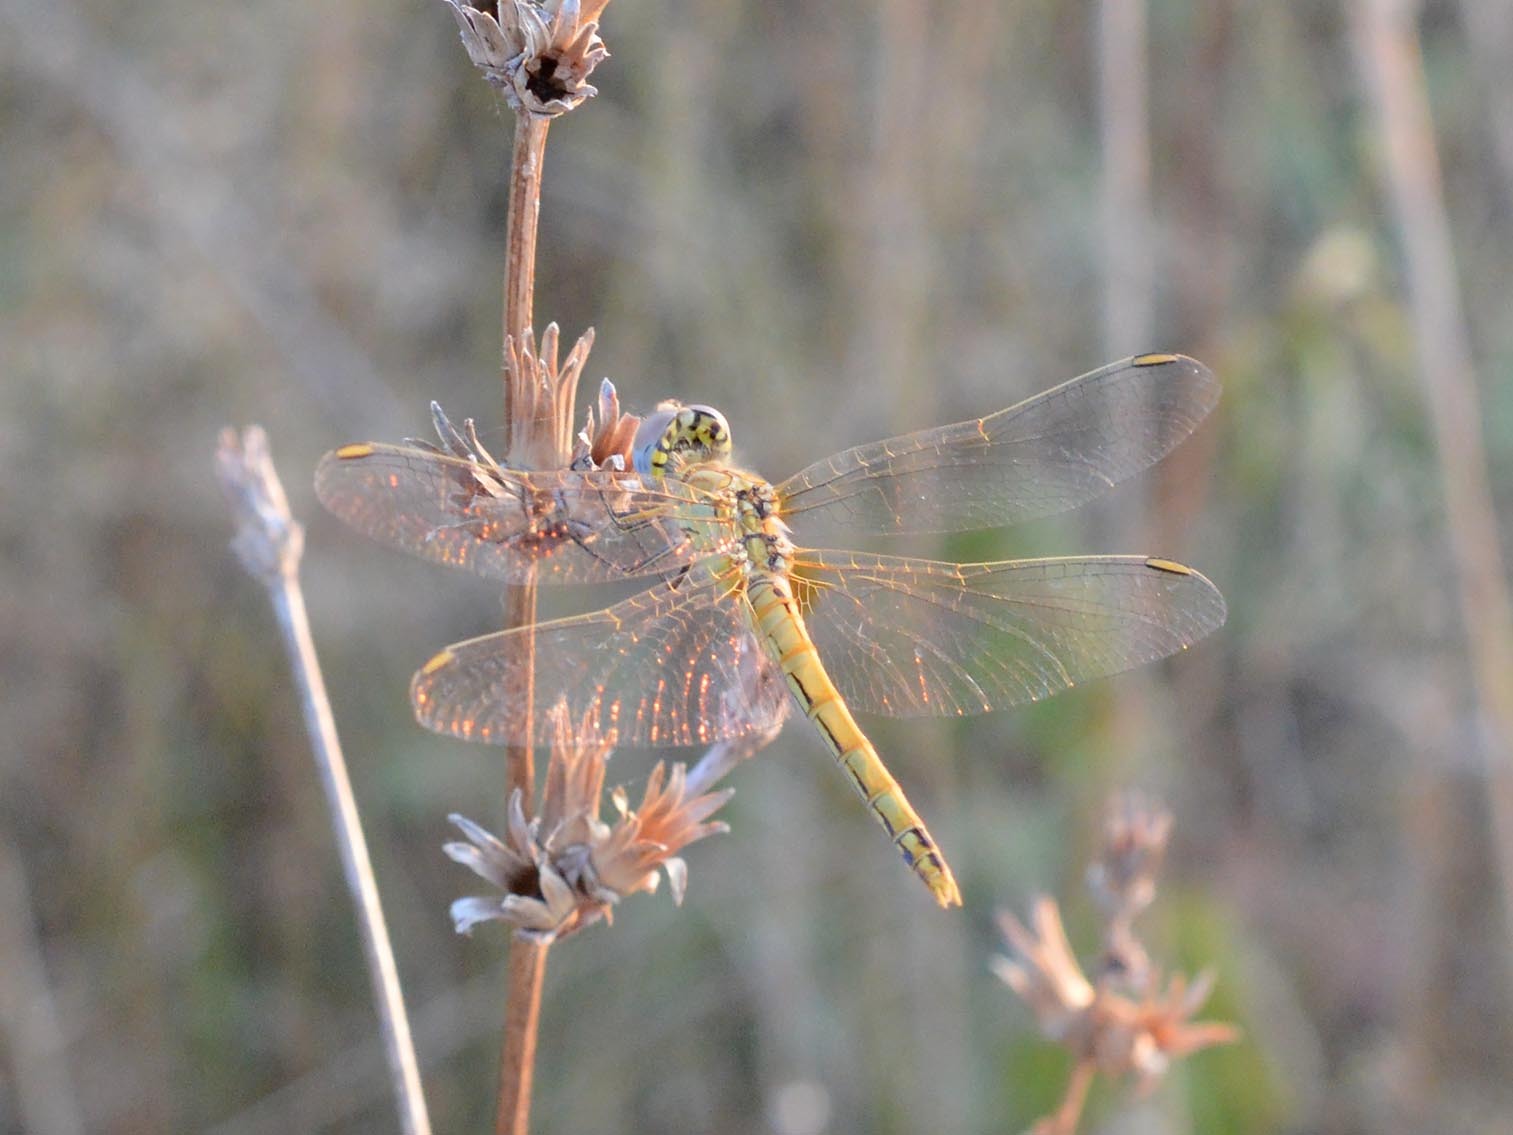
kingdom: Animalia
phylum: Arthropoda
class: Insecta
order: Odonata
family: Libellulidae
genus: Sympetrum
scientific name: Sympetrum fonscolombii
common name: Red-veined darter
